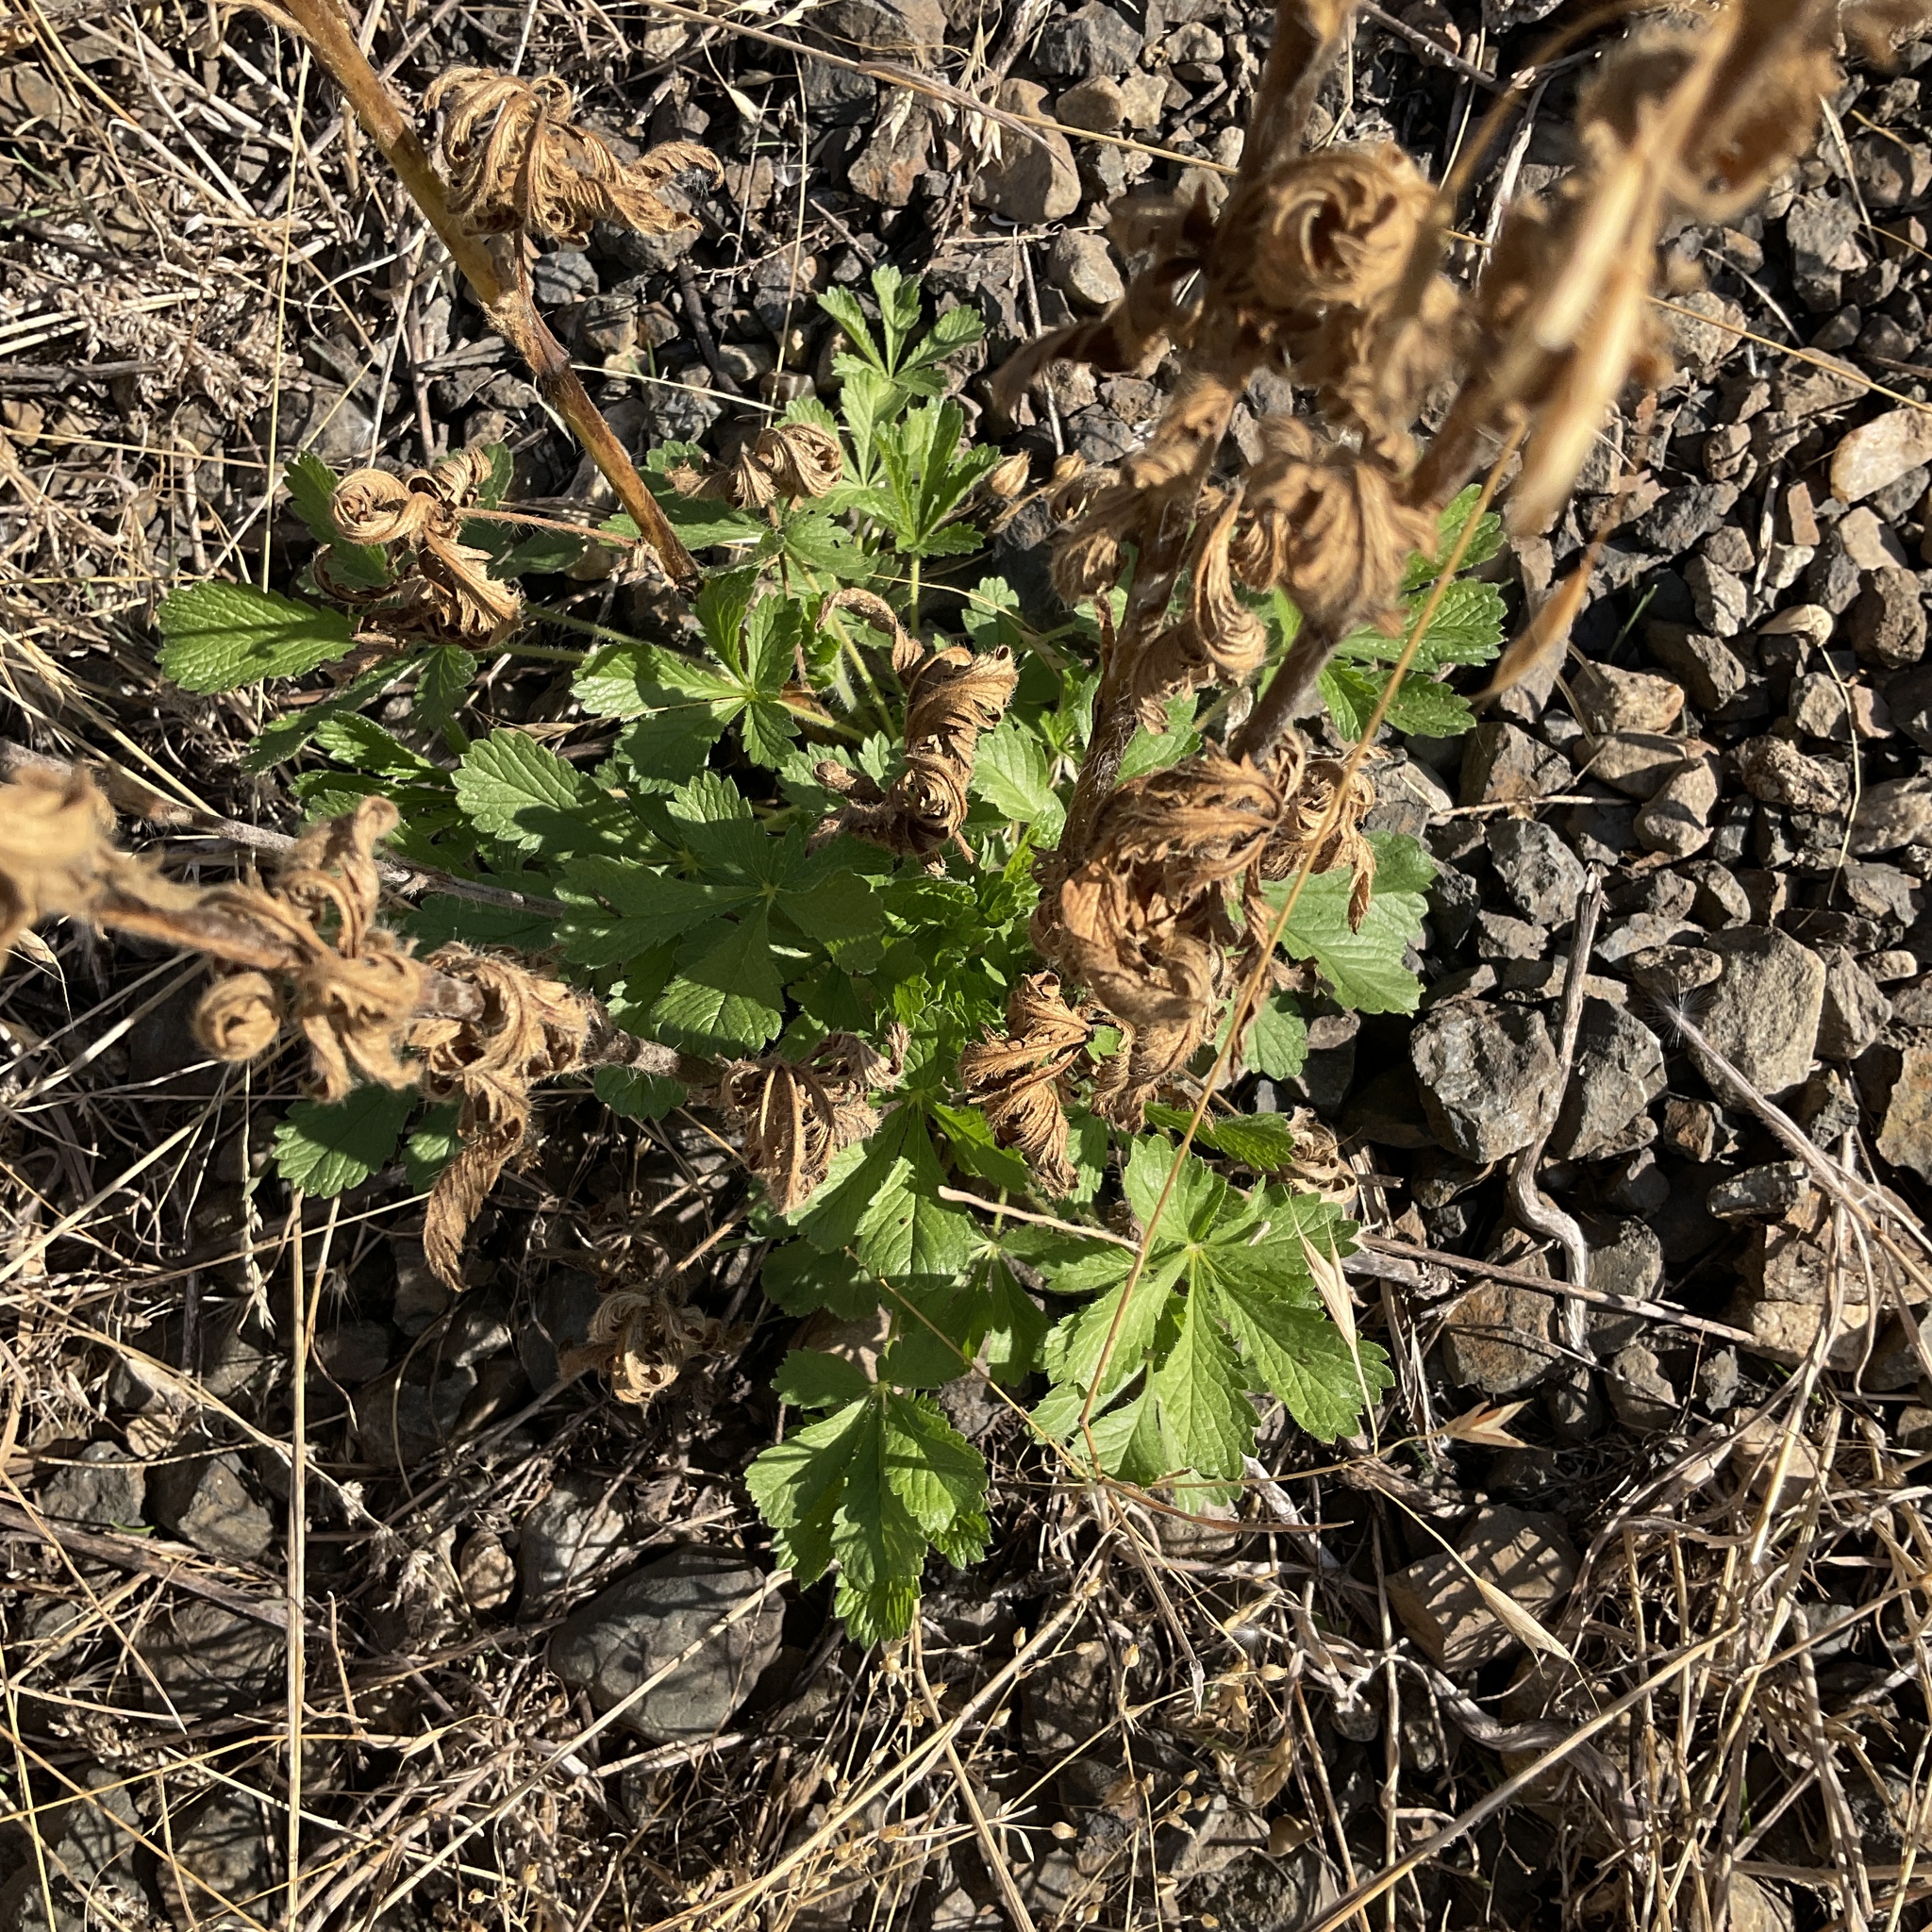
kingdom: Plantae
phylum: Tracheophyta
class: Magnoliopsida
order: Rosales
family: Rosaceae
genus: Potentilla
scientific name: Potentilla recta
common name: Sulphur cinquefoil
